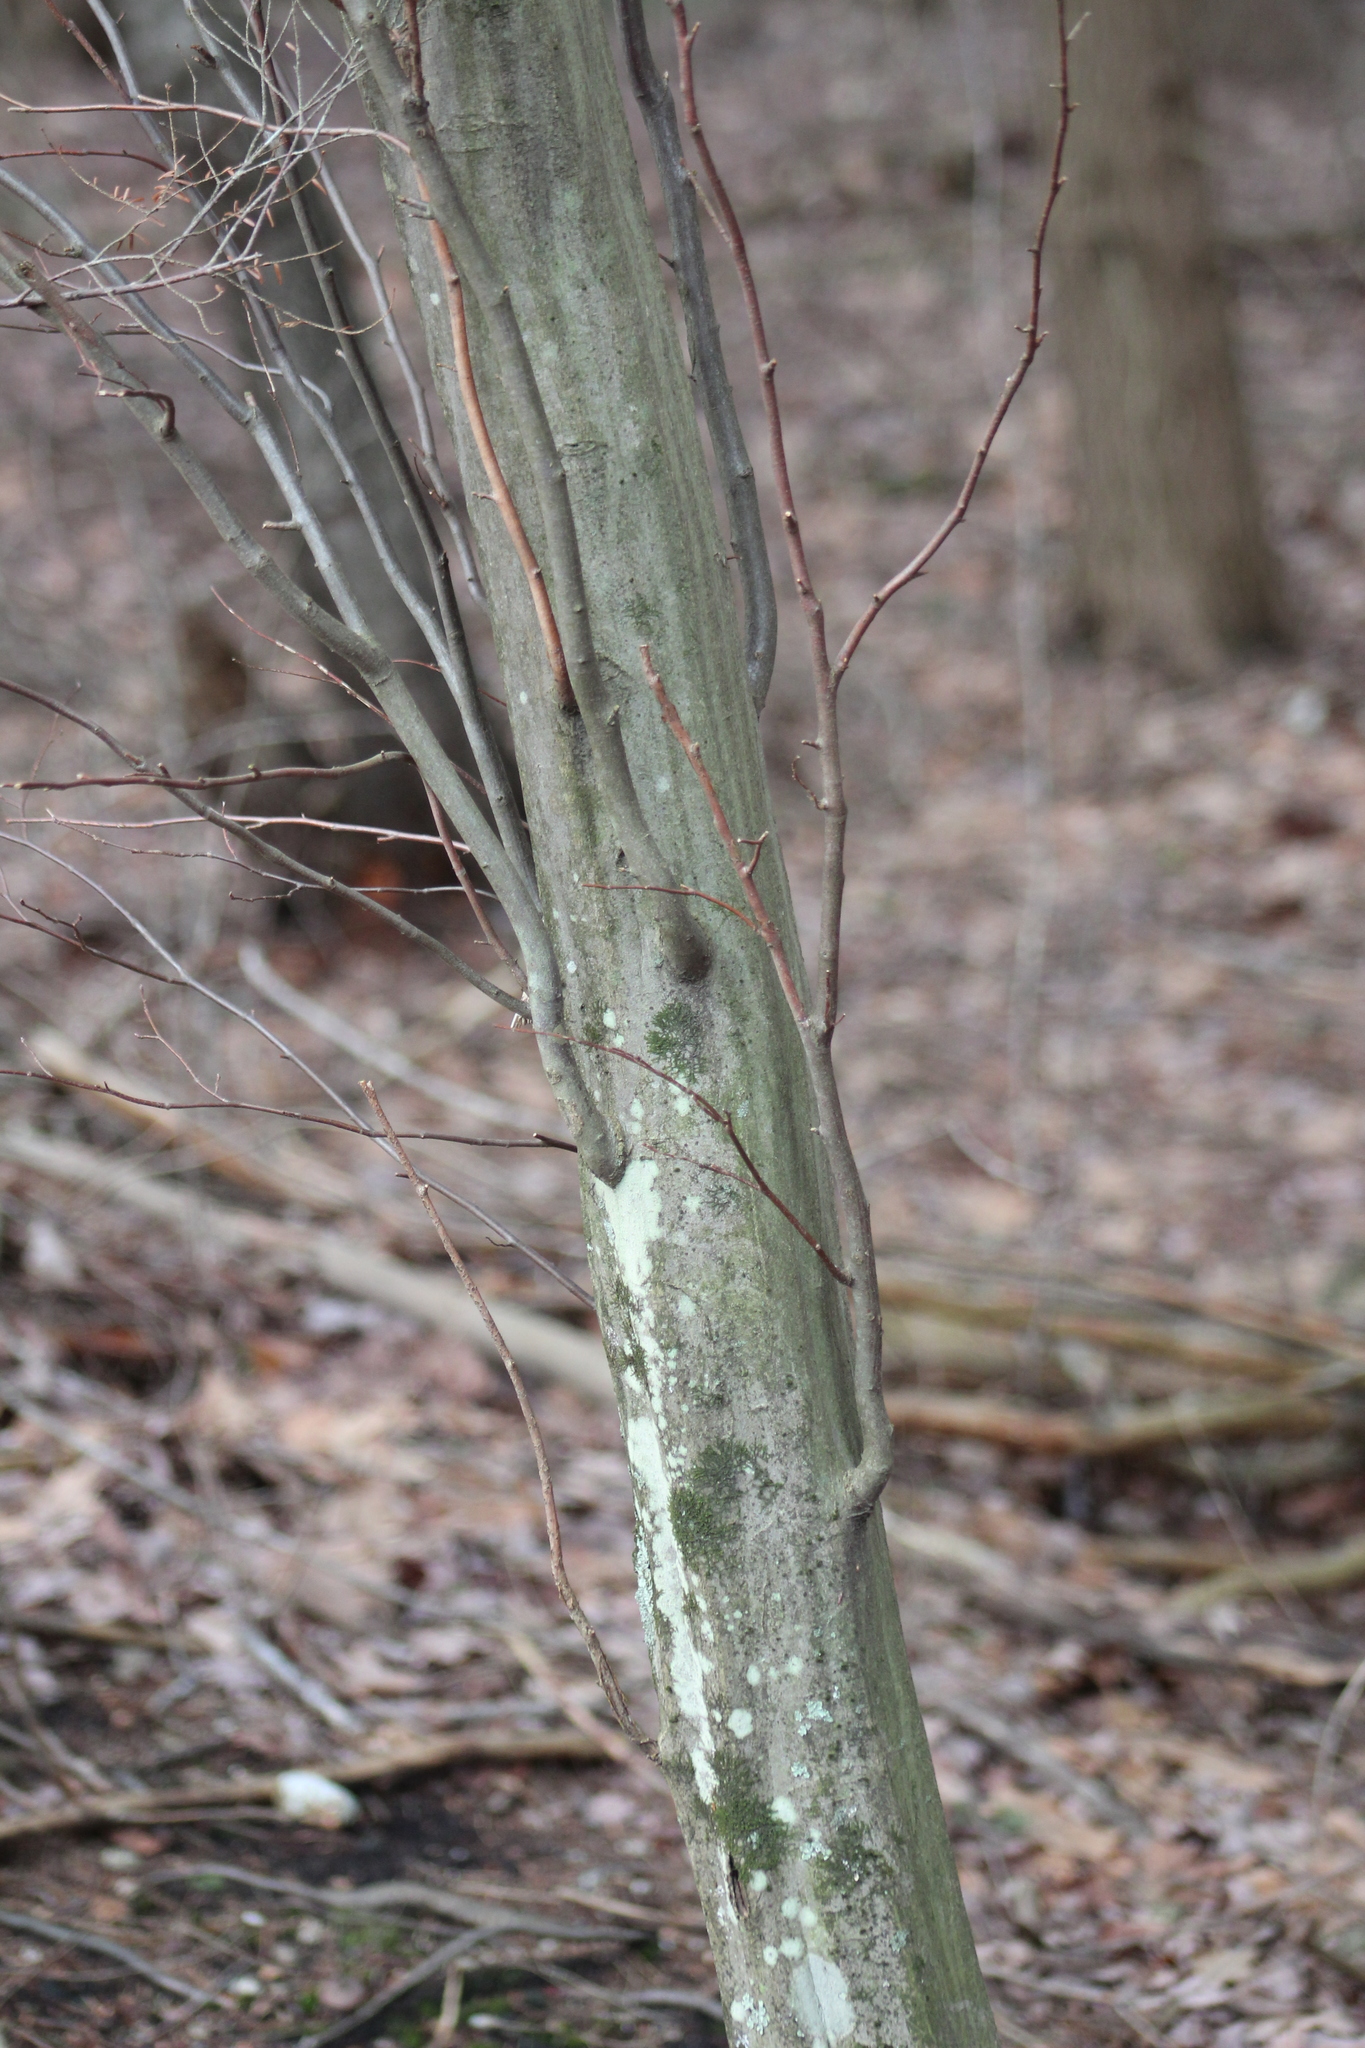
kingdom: Plantae
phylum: Tracheophyta
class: Magnoliopsida
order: Fagales
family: Betulaceae
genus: Carpinus
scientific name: Carpinus caroliniana
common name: American hornbeam
